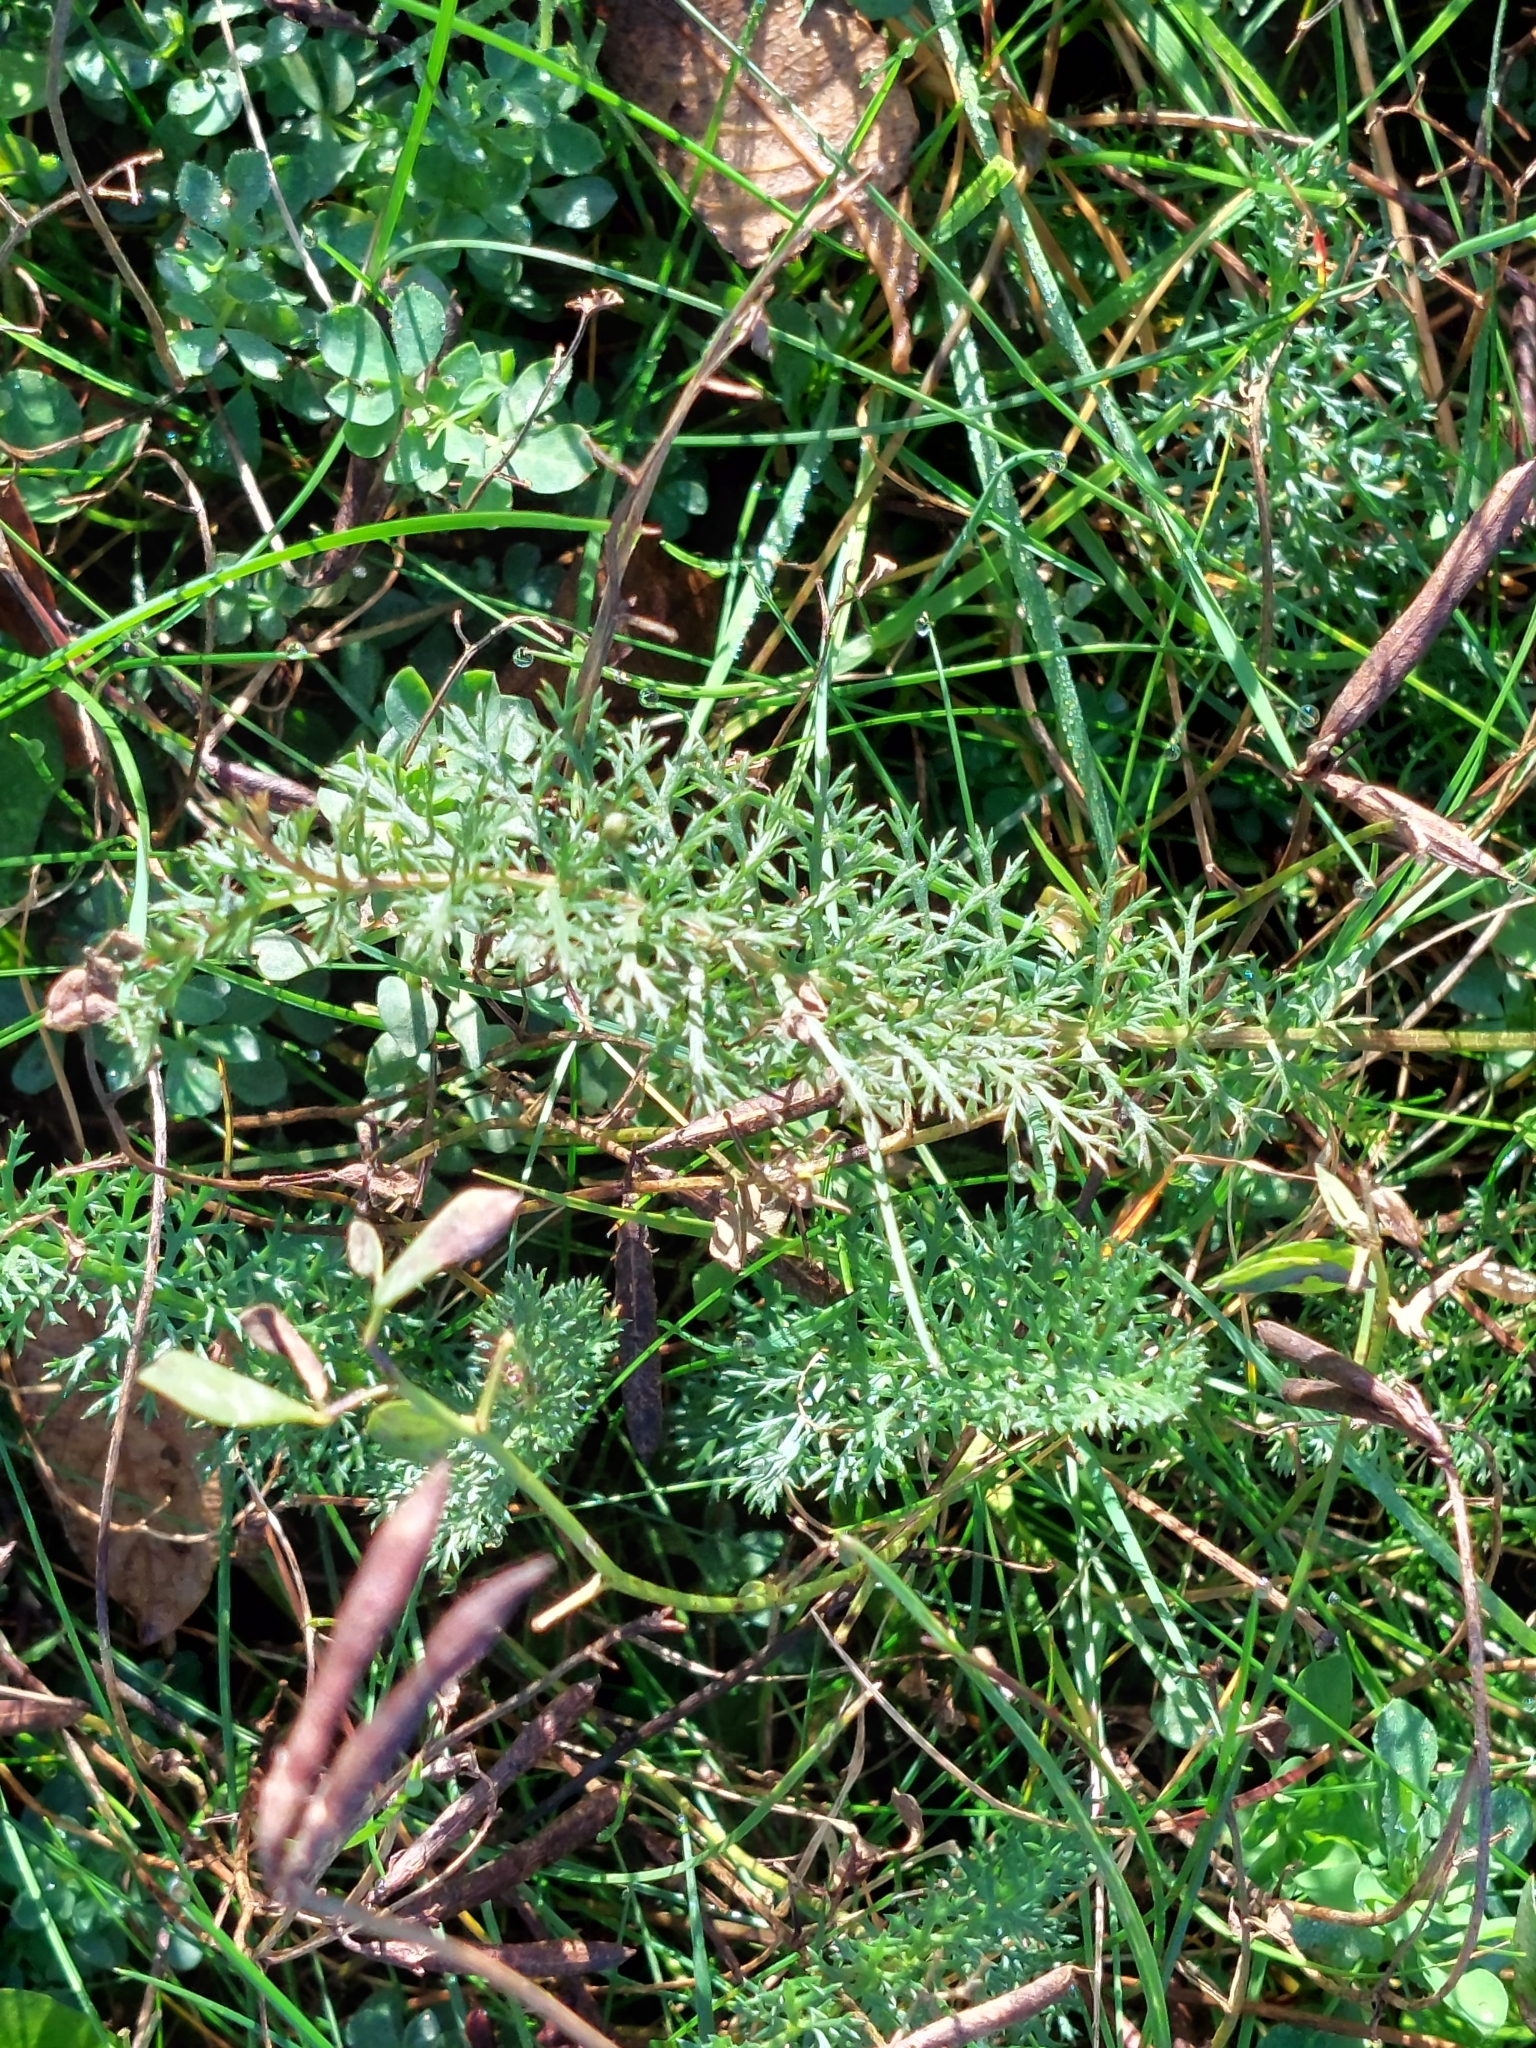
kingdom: Plantae
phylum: Tracheophyta
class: Magnoliopsida
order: Asterales
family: Asteraceae
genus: Achillea
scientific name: Achillea millefolium
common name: Yarrow
